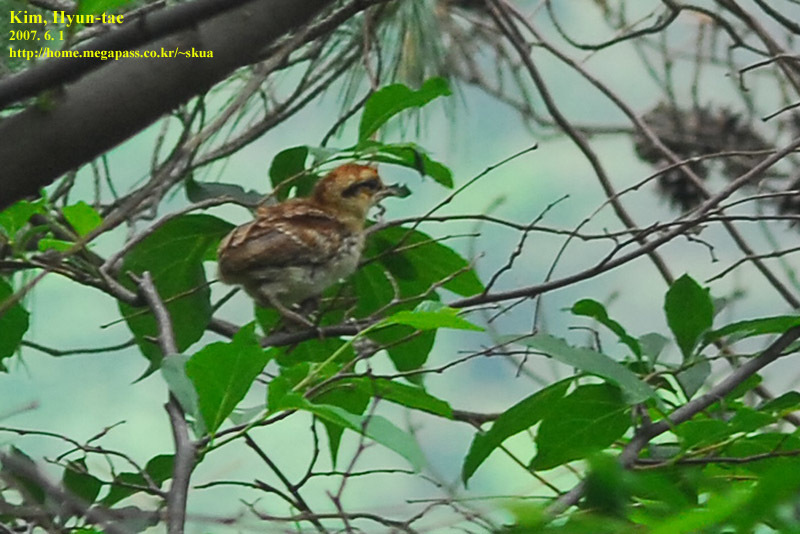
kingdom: Animalia
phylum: Chordata
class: Aves
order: Galliformes
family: Phasianidae
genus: Tetrastes
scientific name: Tetrastes bonasia
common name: Hazel grouse
